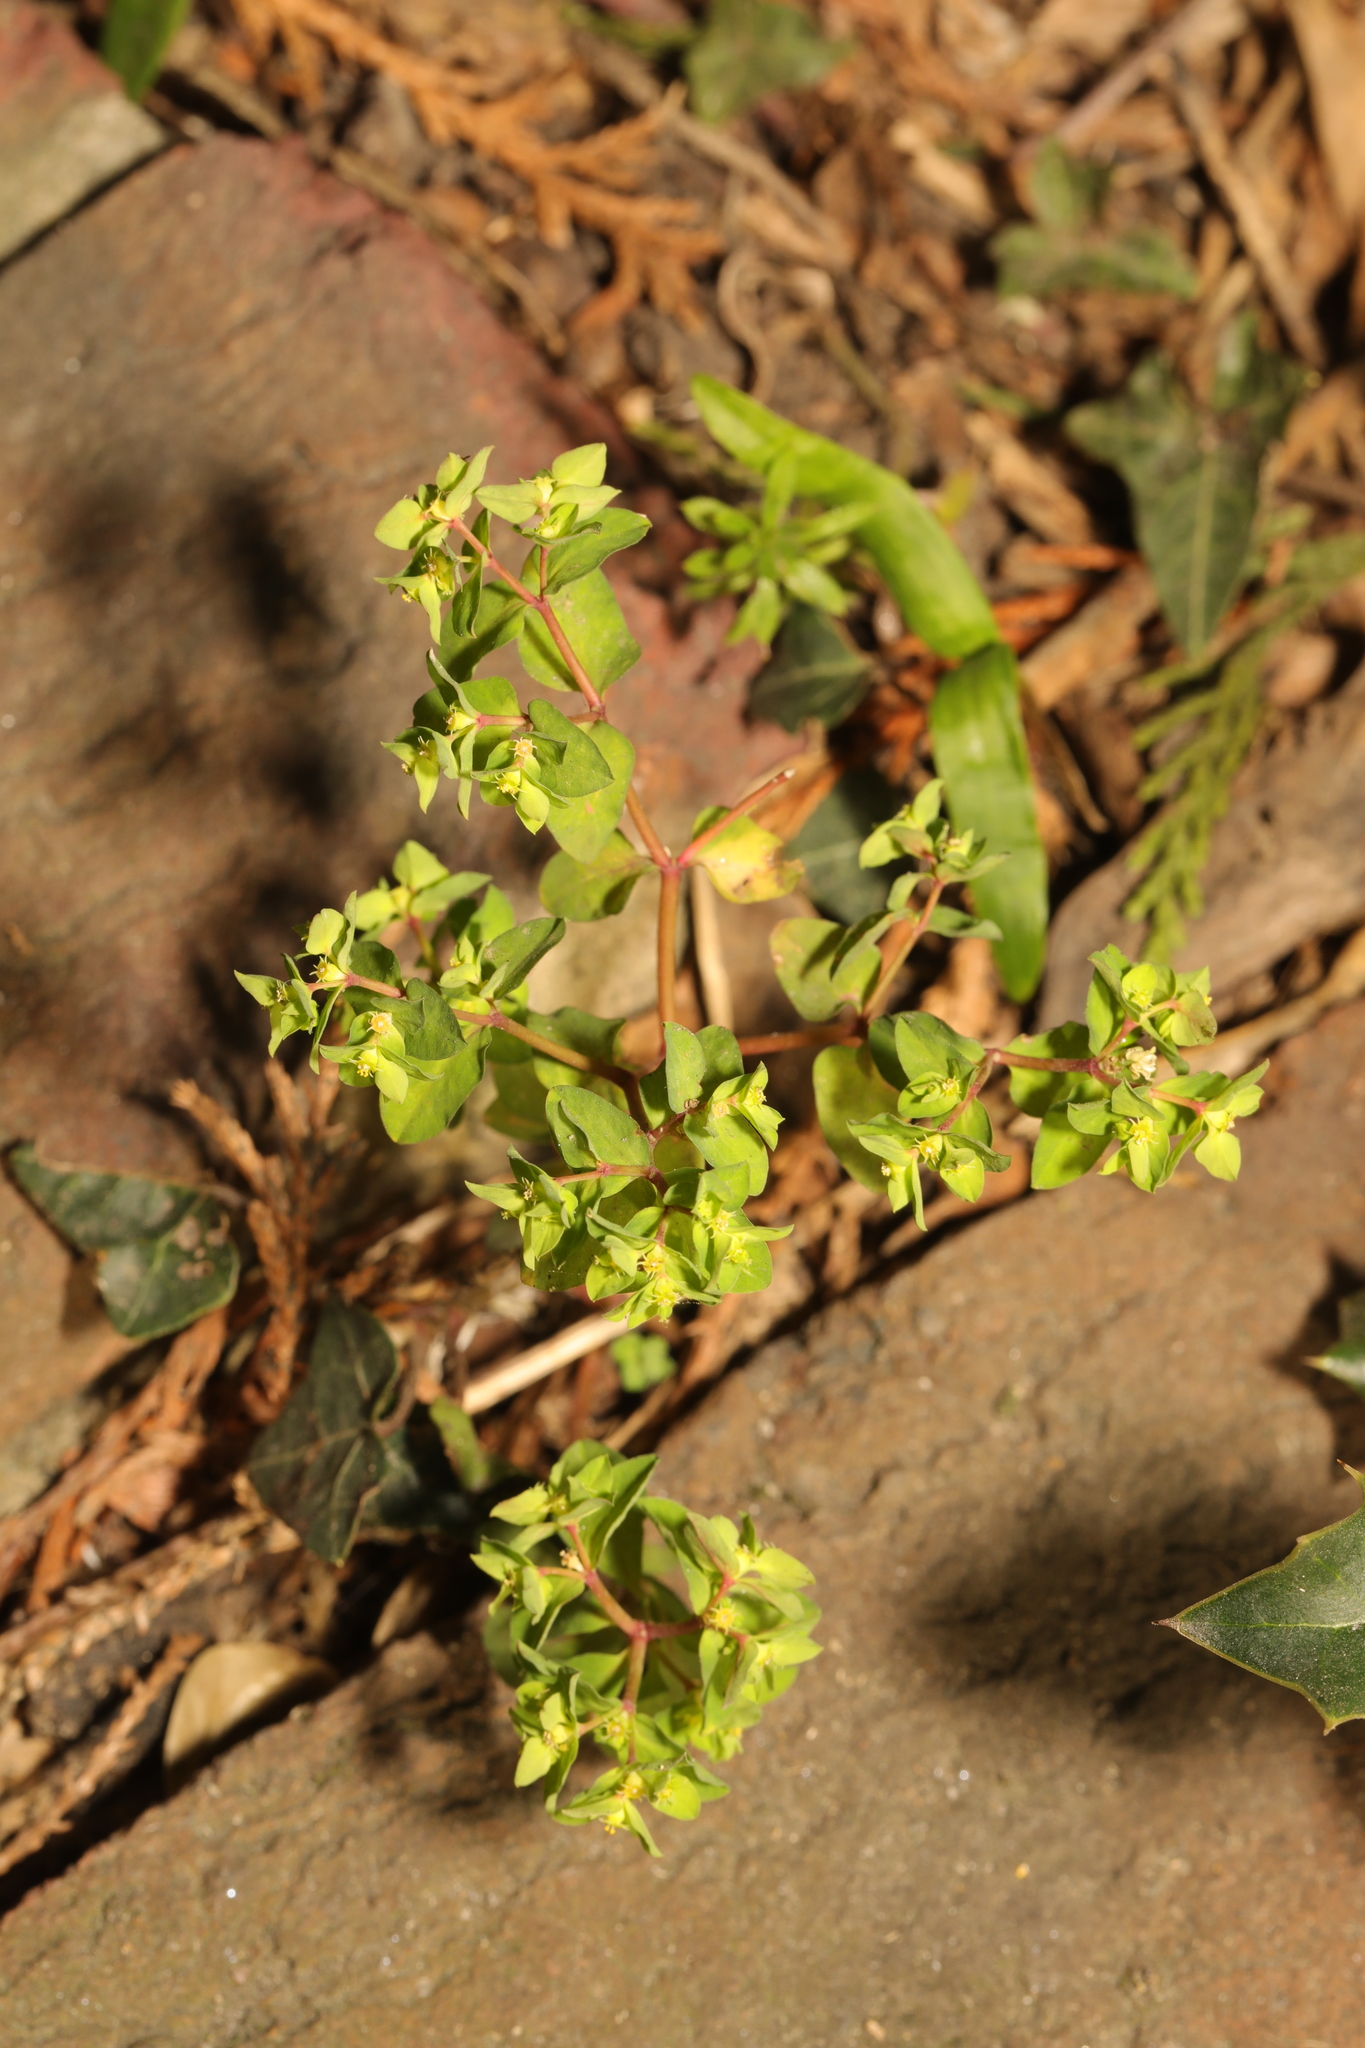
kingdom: Plantae
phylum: Tracheophyta
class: Magnoliopsida
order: Malpighiales
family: Euphorbiaceae
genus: Euphorbia
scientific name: Euphorbia peplus
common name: Petty spurge
